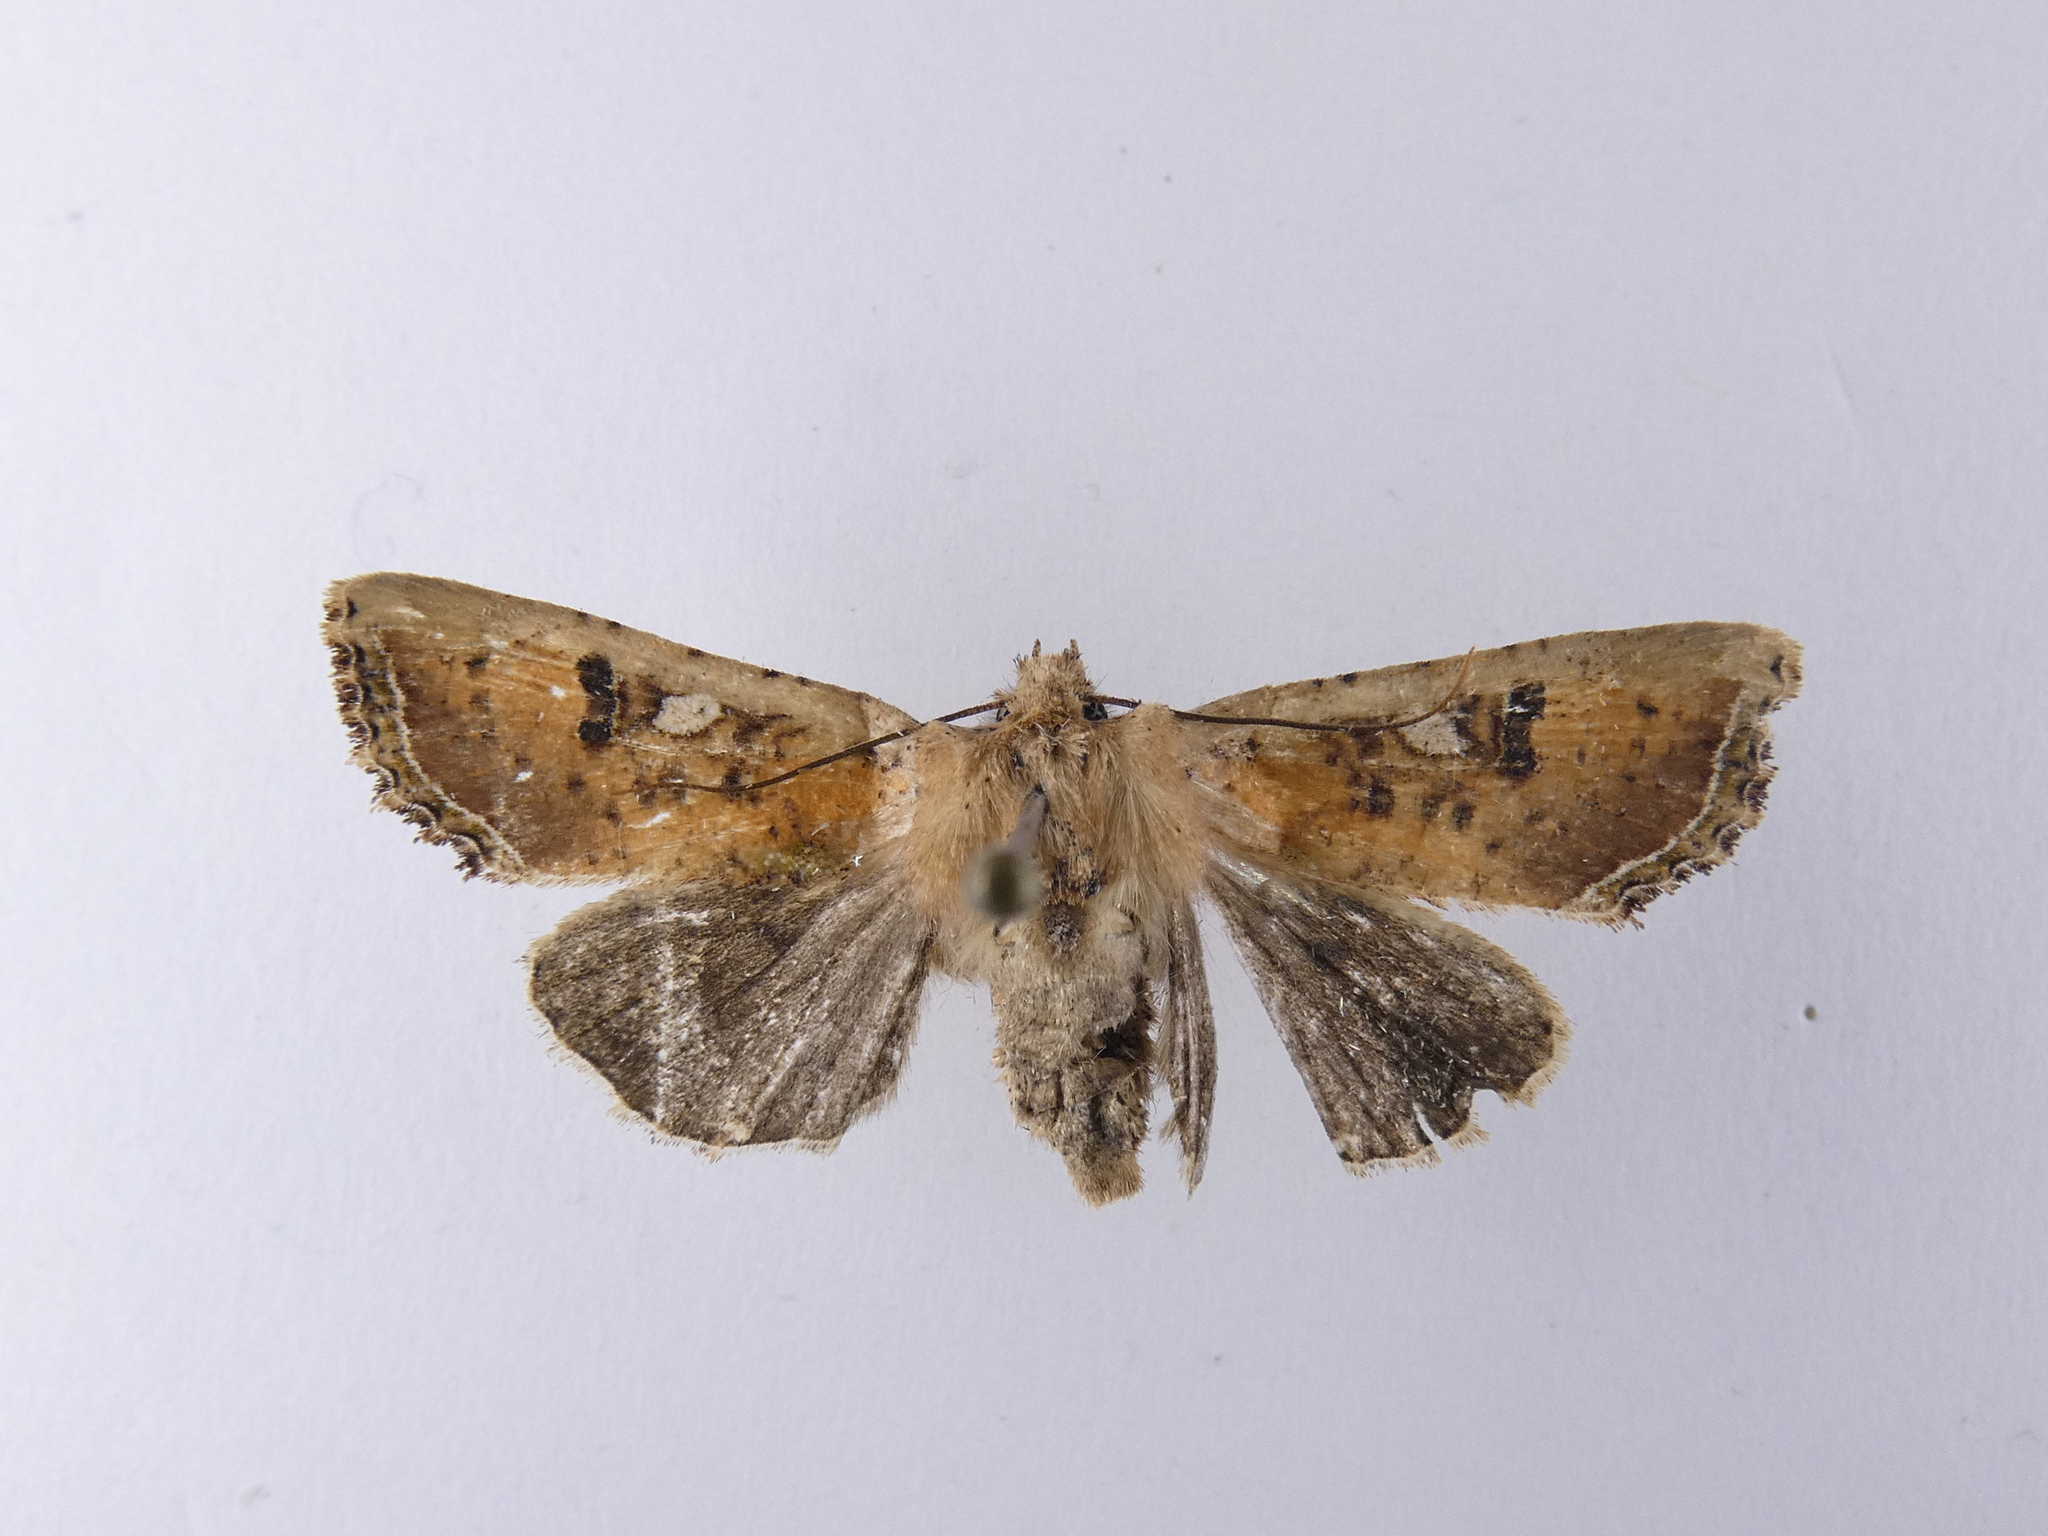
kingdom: Animalia
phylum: Arthropoda
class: Insecta
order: Lepidoptera
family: Noctuidae
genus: Meterana
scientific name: Meterana inchoata
